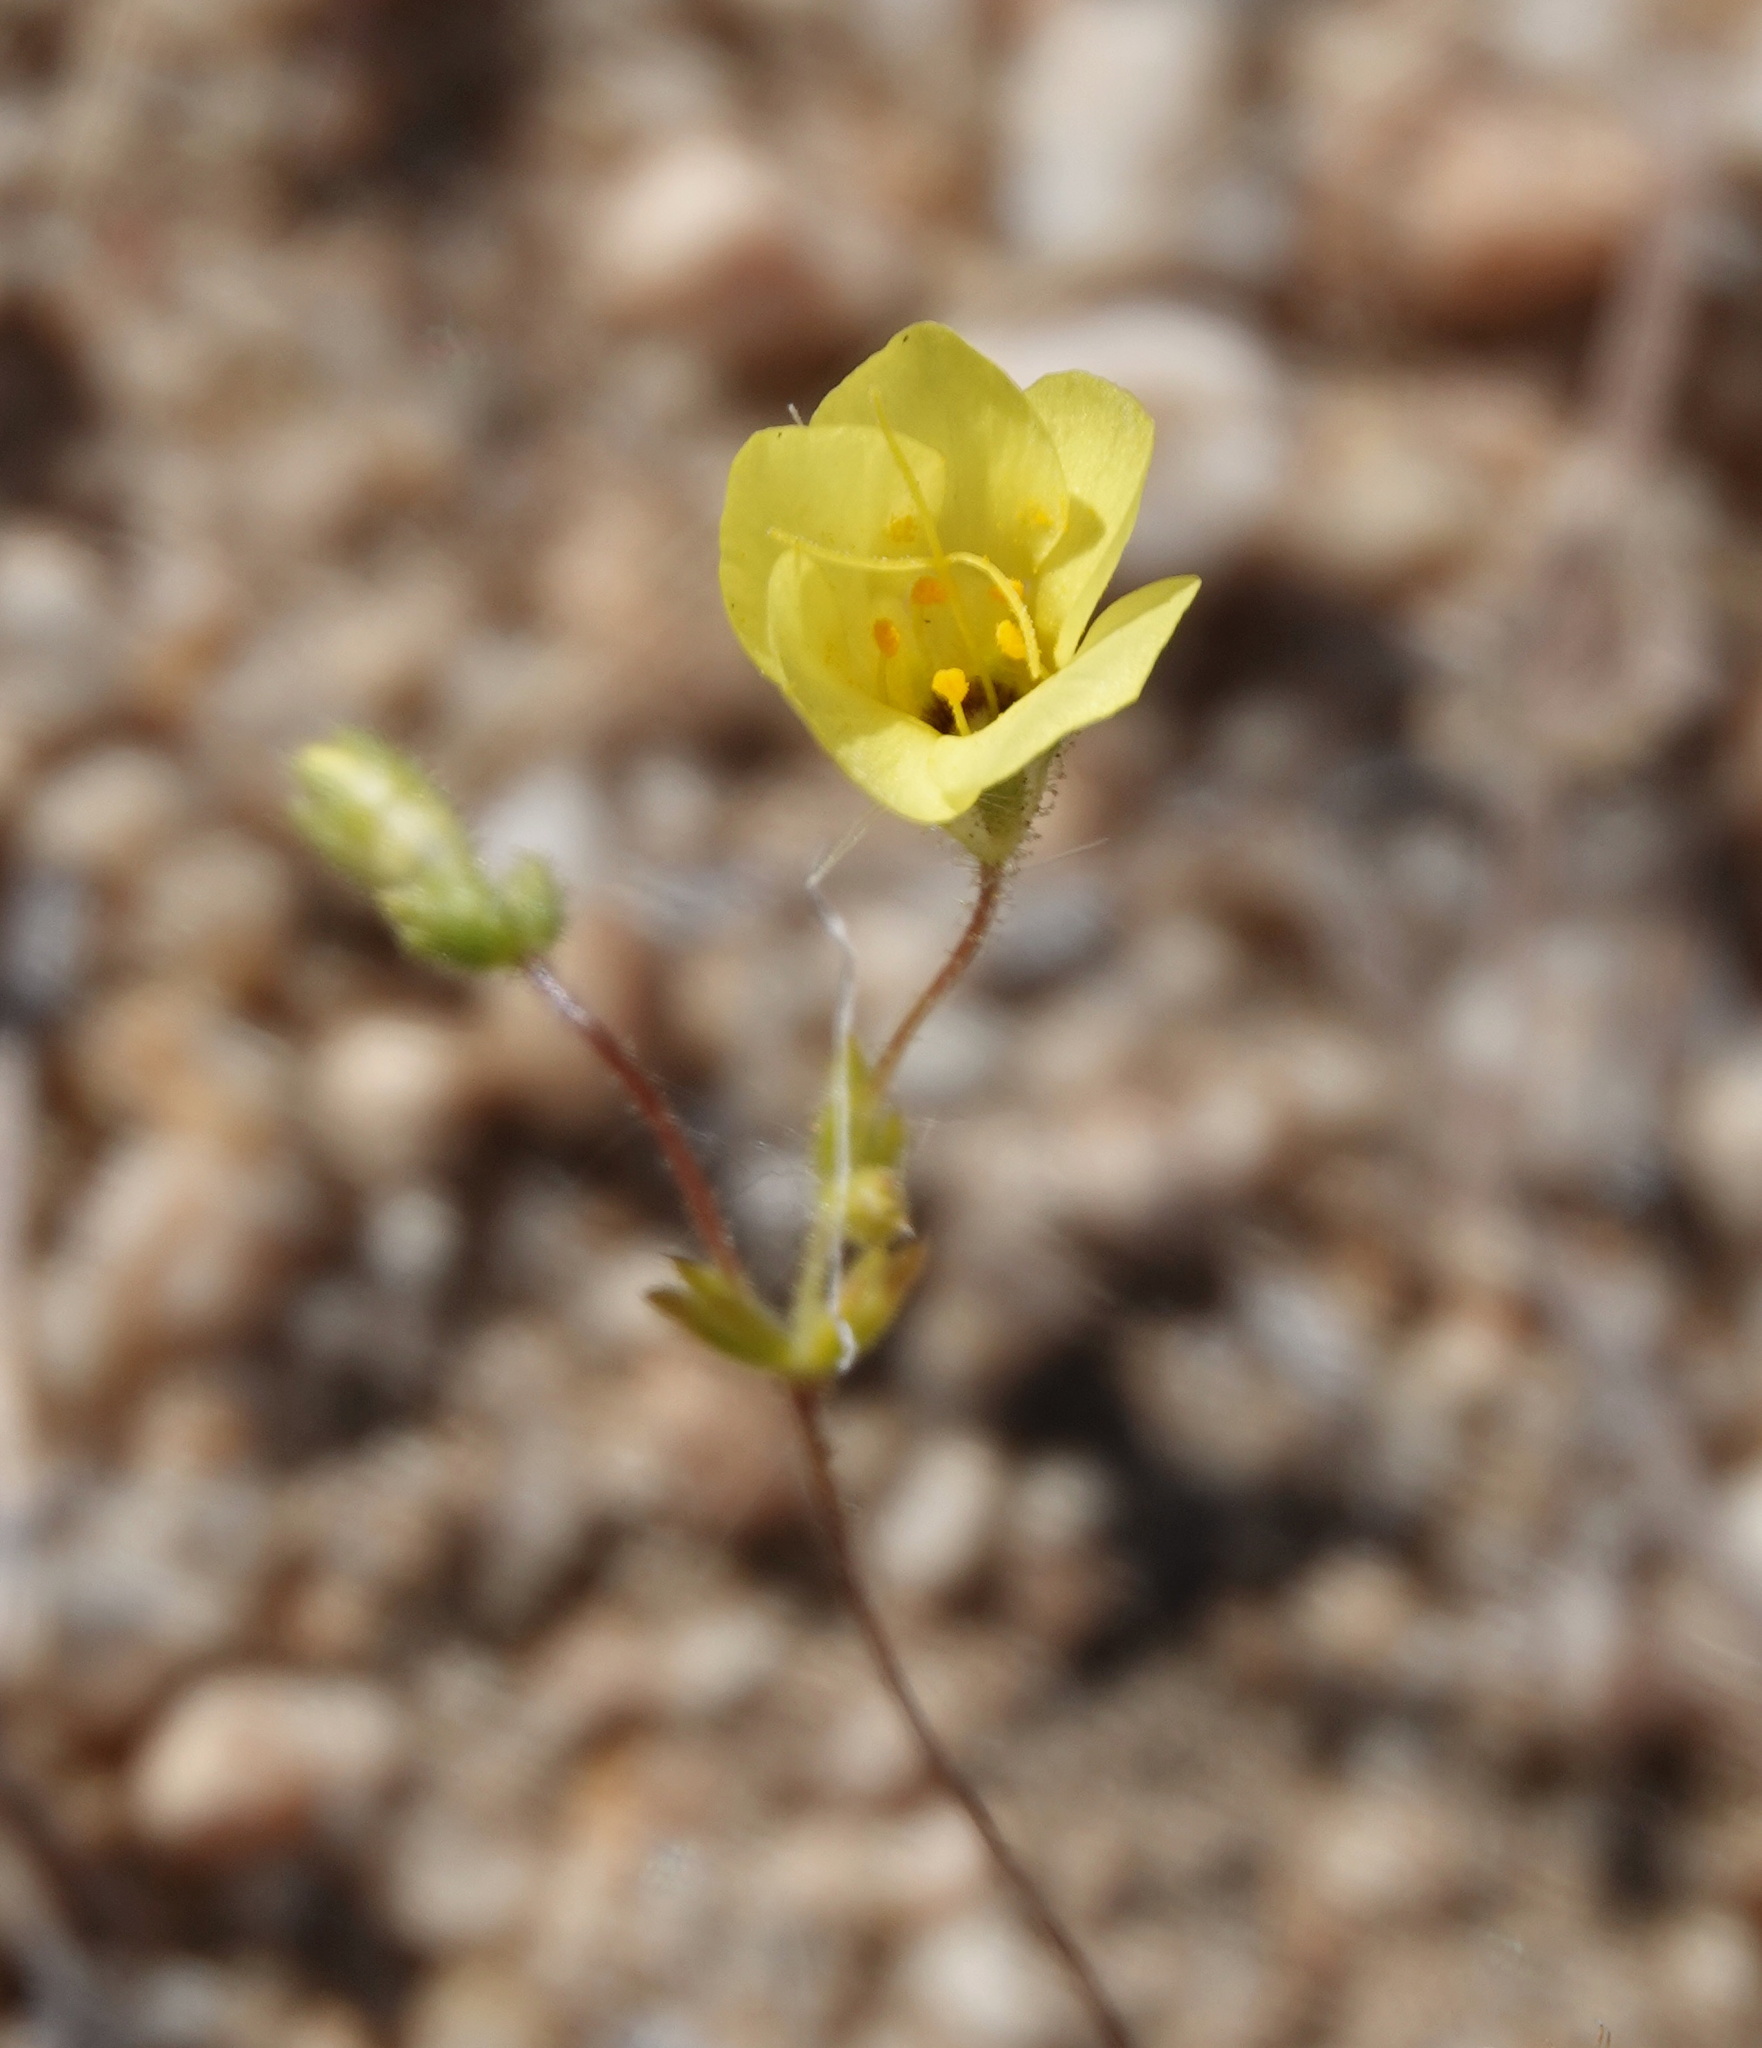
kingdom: Plantae
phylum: Tracheophyta
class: Magnoliopsida
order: Ericales
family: Polemoniaceae
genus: Leptosiphon
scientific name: Leptosiphon chrysanthus
